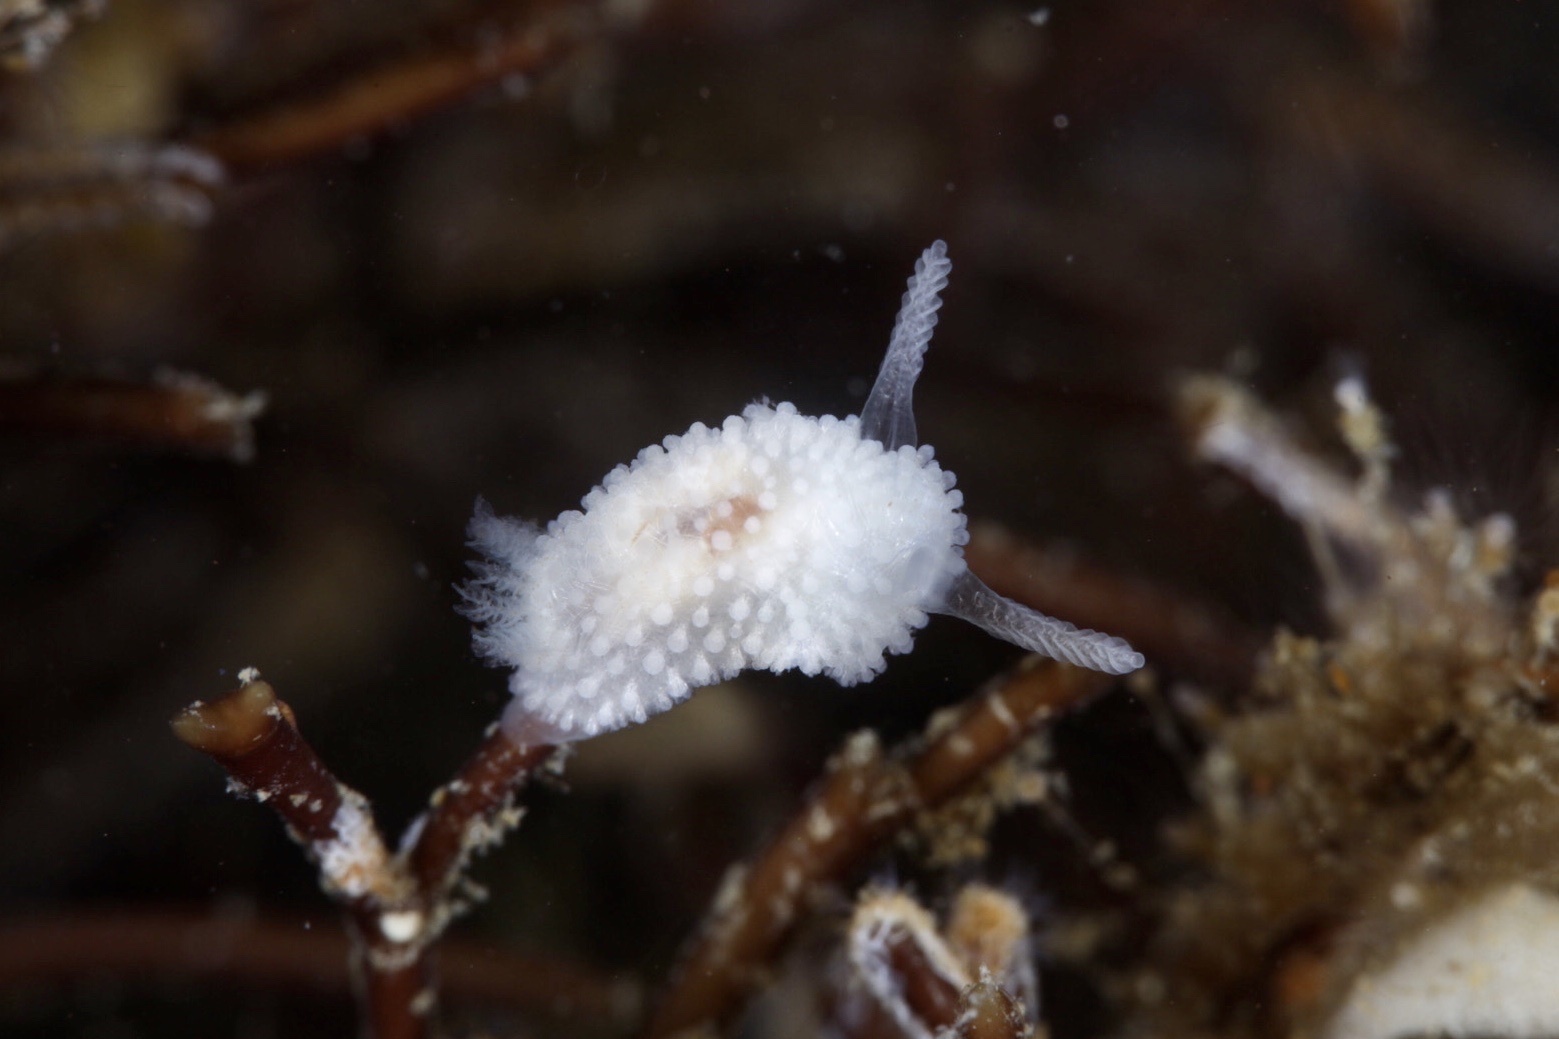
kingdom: Animalia
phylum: Mollusca
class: Gastropoda
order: Nudibranchia
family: Onchidorididae
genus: Onchidoris
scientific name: Onchidoris muricata
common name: Rough doris
